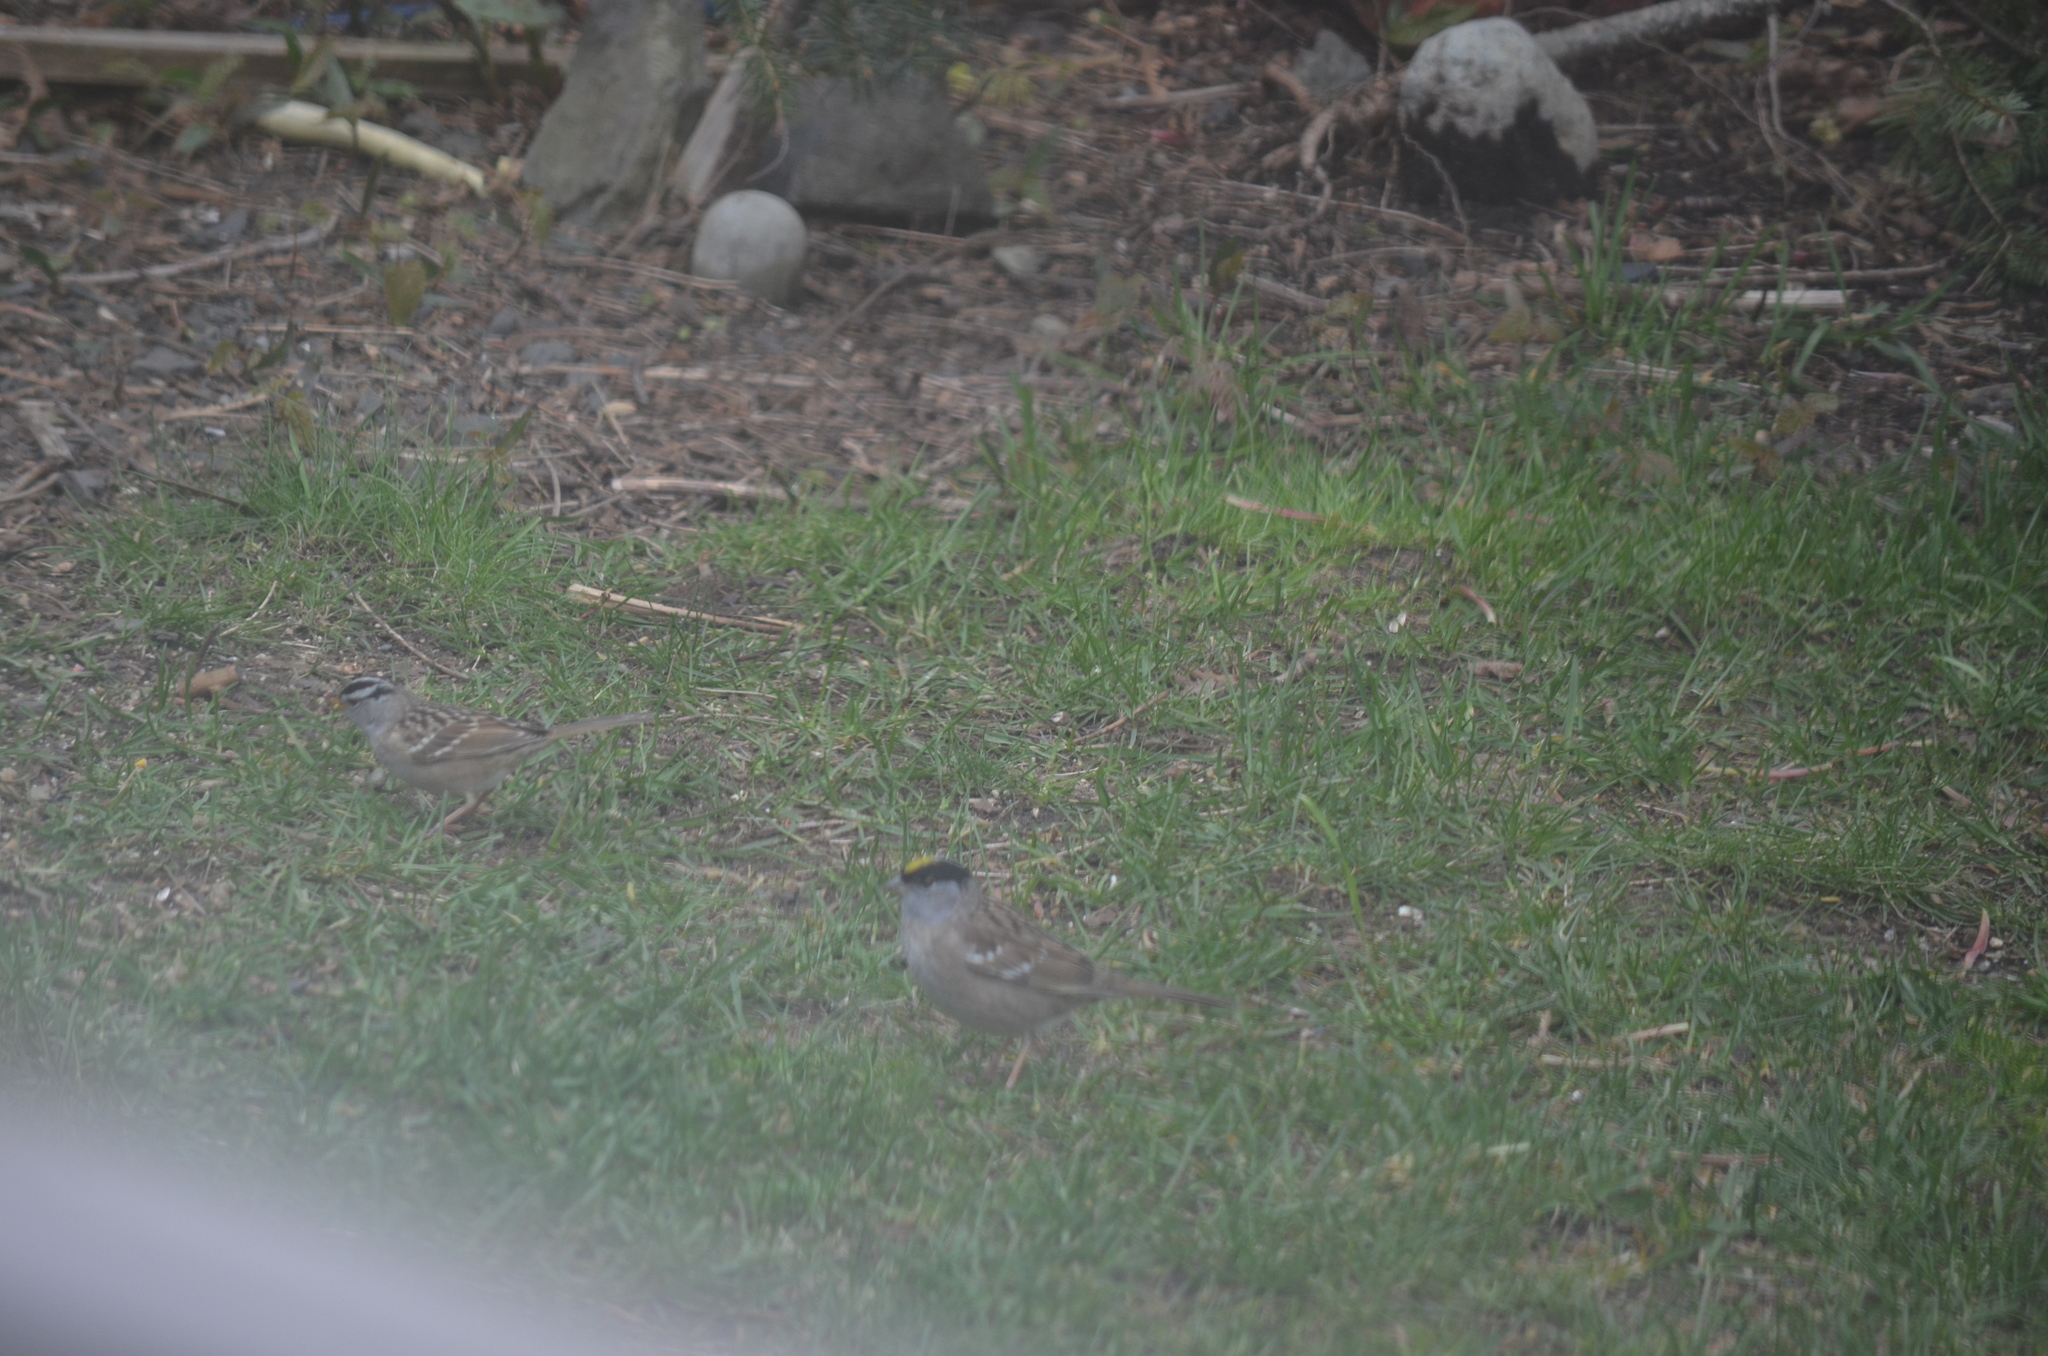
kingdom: Animalia
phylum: Chordata
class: Aves
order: Passeriformes
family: Passerellidae
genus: Zonotrichia
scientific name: Zonotrichia atricapilla
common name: Golden-crowned sparrow
